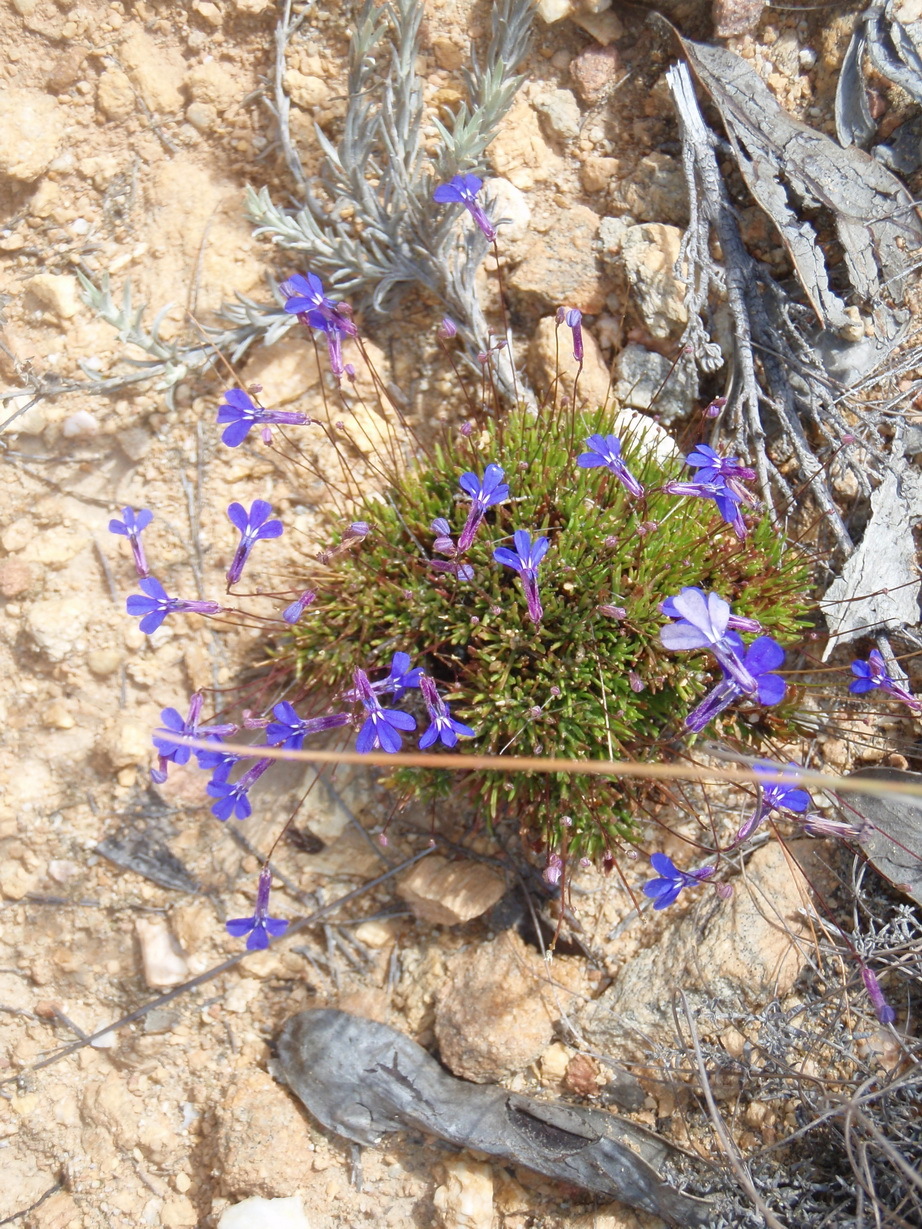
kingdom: Plantae
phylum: Tracheophyta
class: Magnoliopsida
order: Asterales
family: Campanulaceae
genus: Lobelia
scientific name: Lobelia tomentosa
